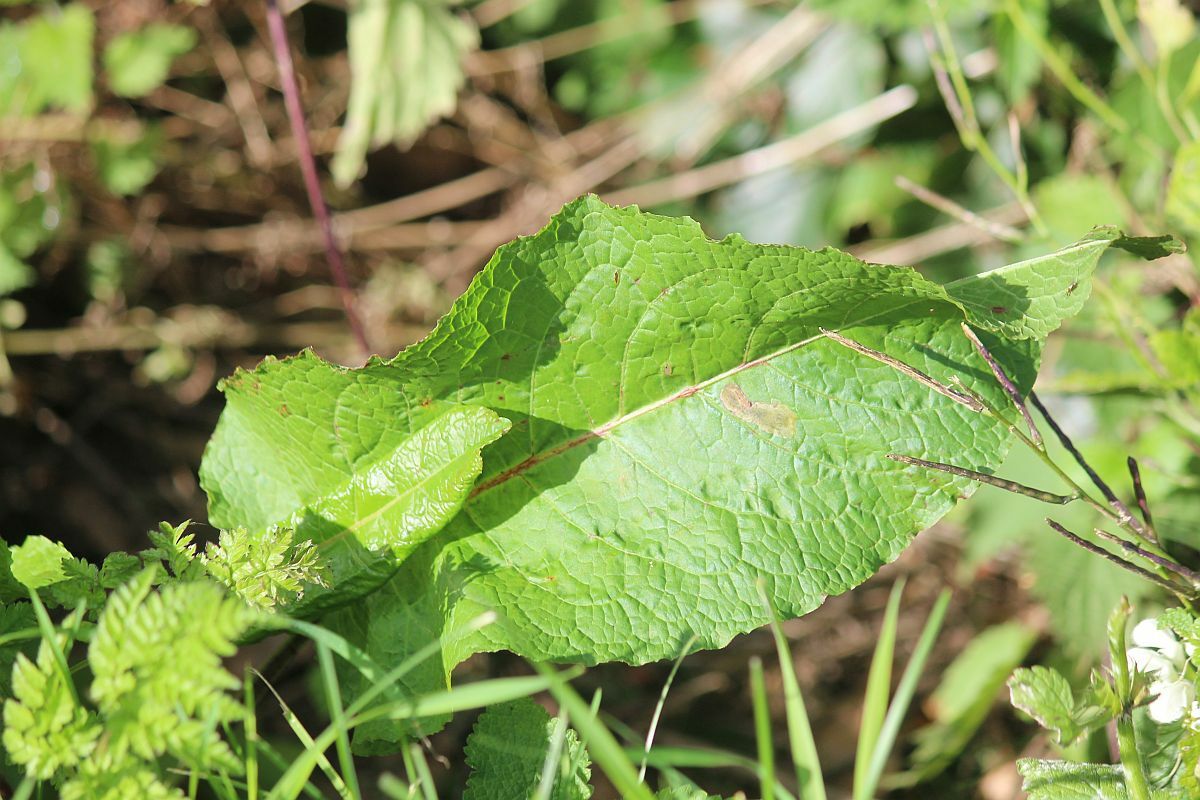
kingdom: Plantae
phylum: Tracheophyta
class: Magnoliopsida
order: Caryophyllales
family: Polygonaceae
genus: Rumex
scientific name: Rumex obtusifolius
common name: Bitter dock
